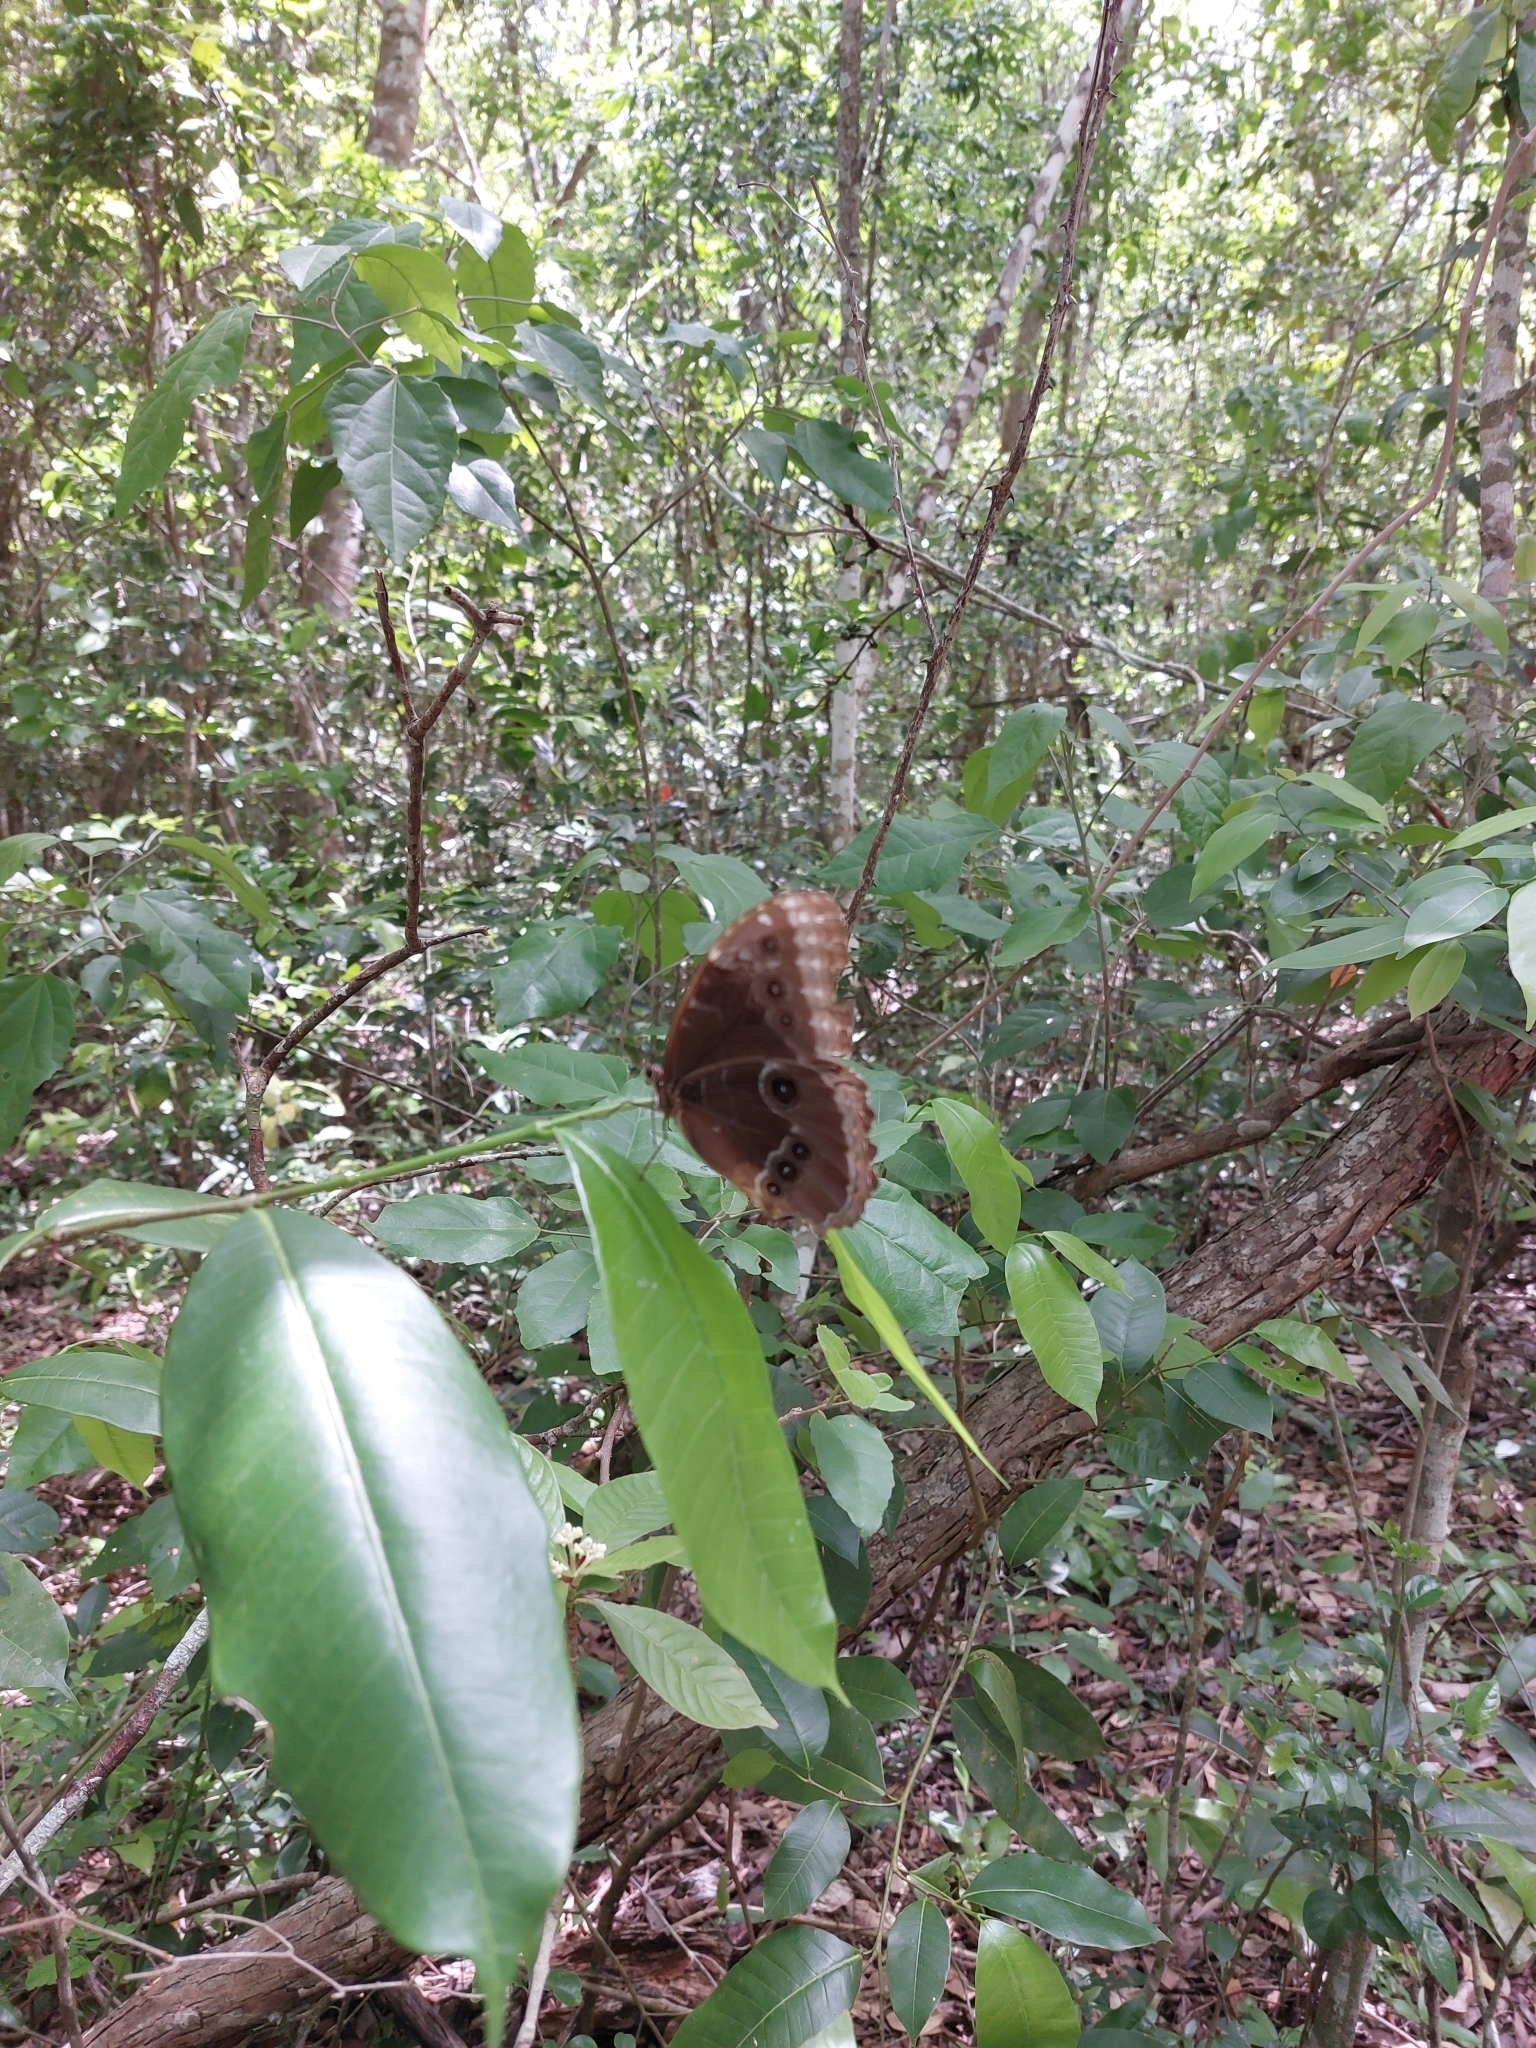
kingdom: Animalia
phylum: Arthropoda
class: Insecta
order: Lepidoptera
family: Nymphalidae
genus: Morpho
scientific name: Morpho helenor
